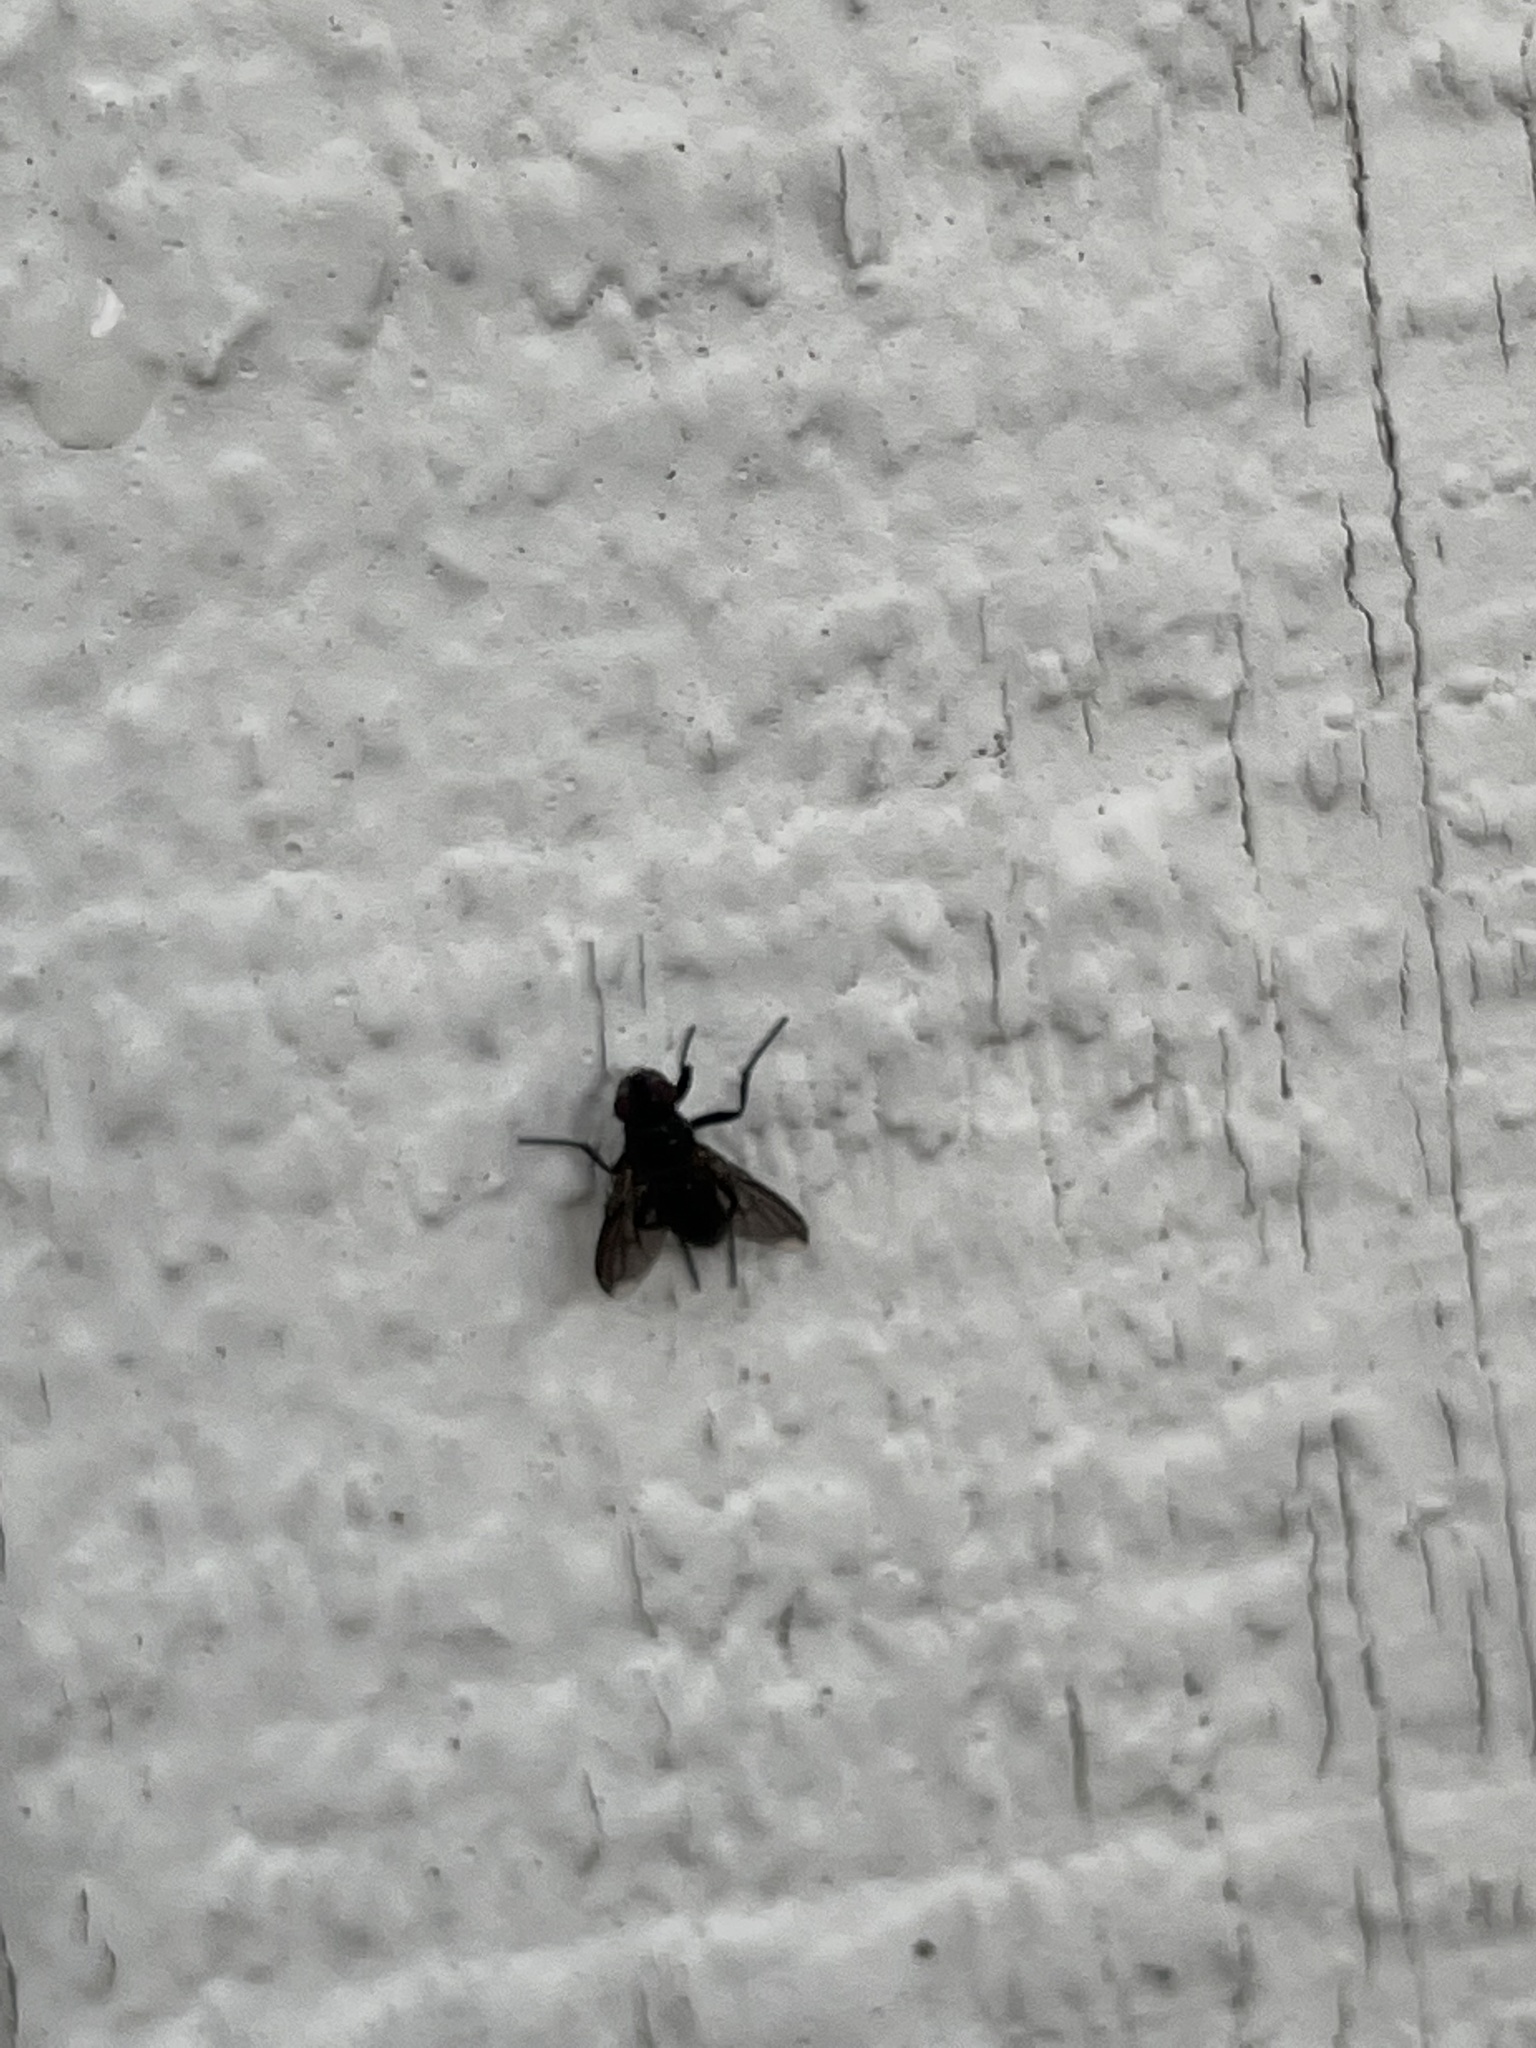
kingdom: Animalia
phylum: Arthropoda
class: Insecta
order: Diptera
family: Calliphoridae
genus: Melanophora
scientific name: Melanophora roralis
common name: Smoky-winged woodlouse-fly
